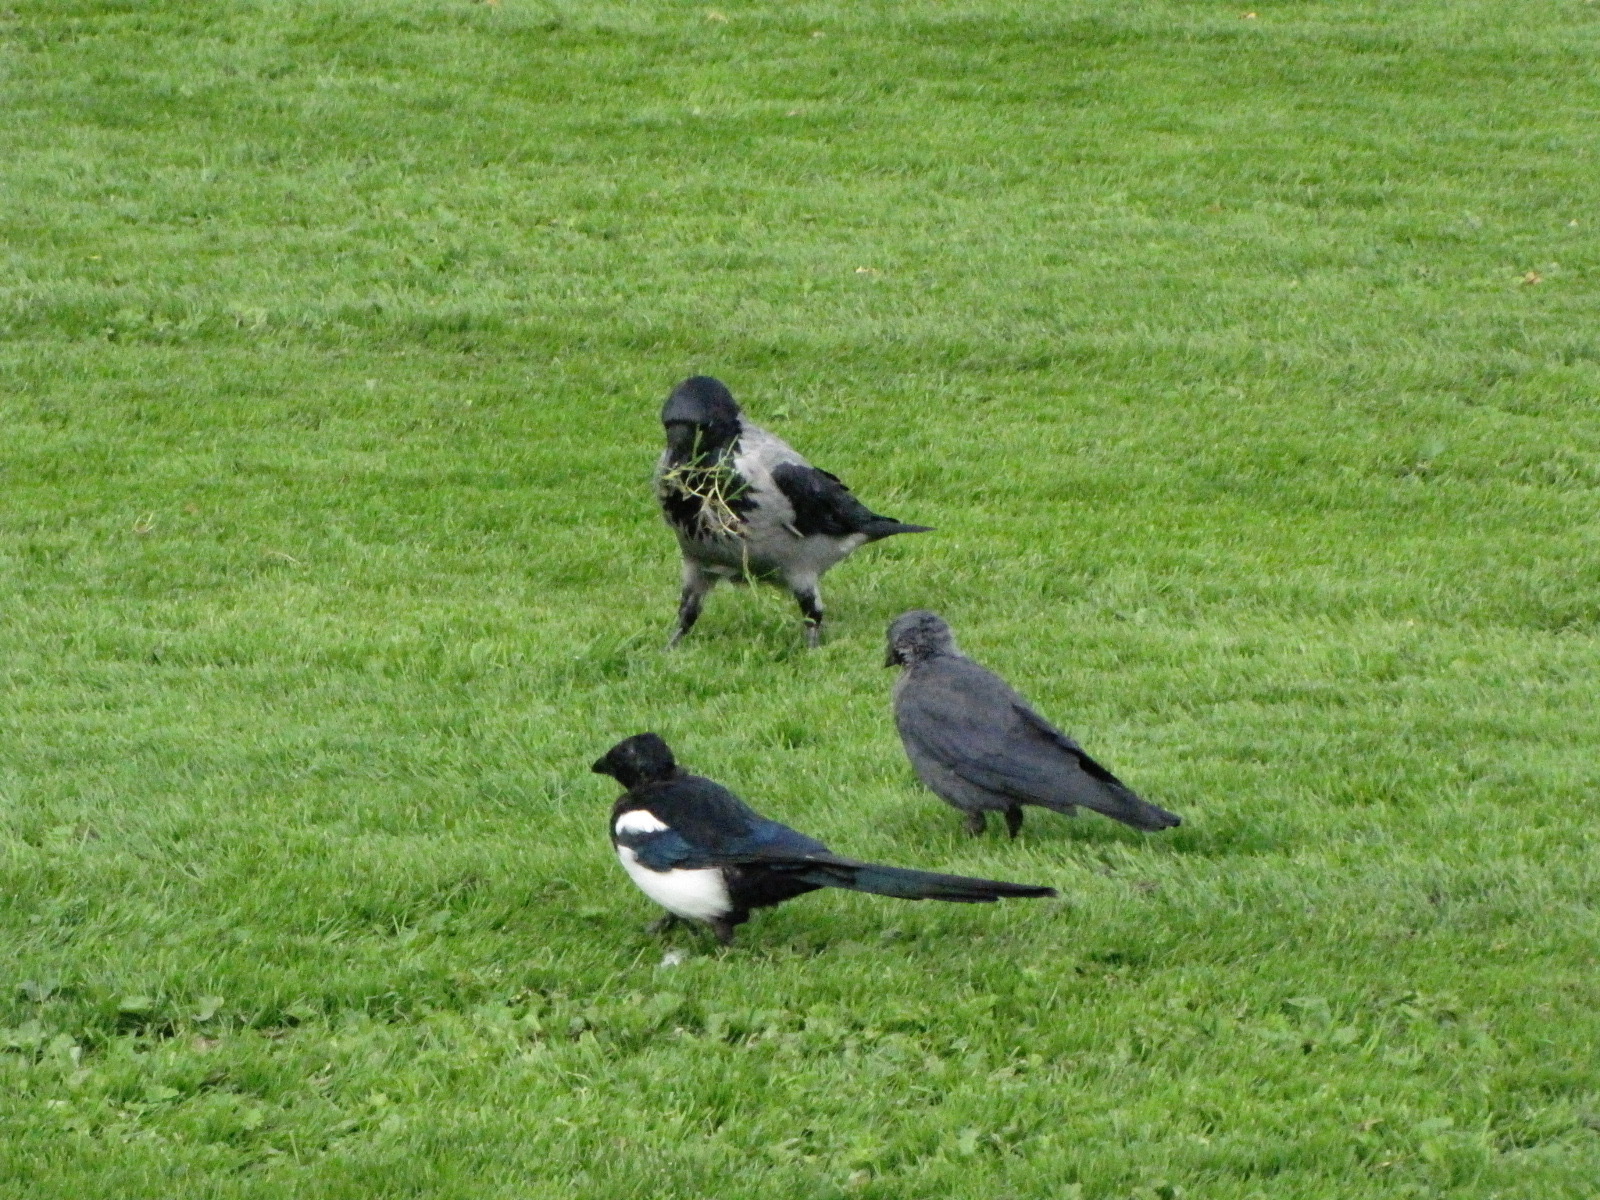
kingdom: Animalia
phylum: Chordata
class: Aves
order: Passeriformes
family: Corvidae
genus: Coloeus
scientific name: Coloeus monedula
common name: Western jackdaw
